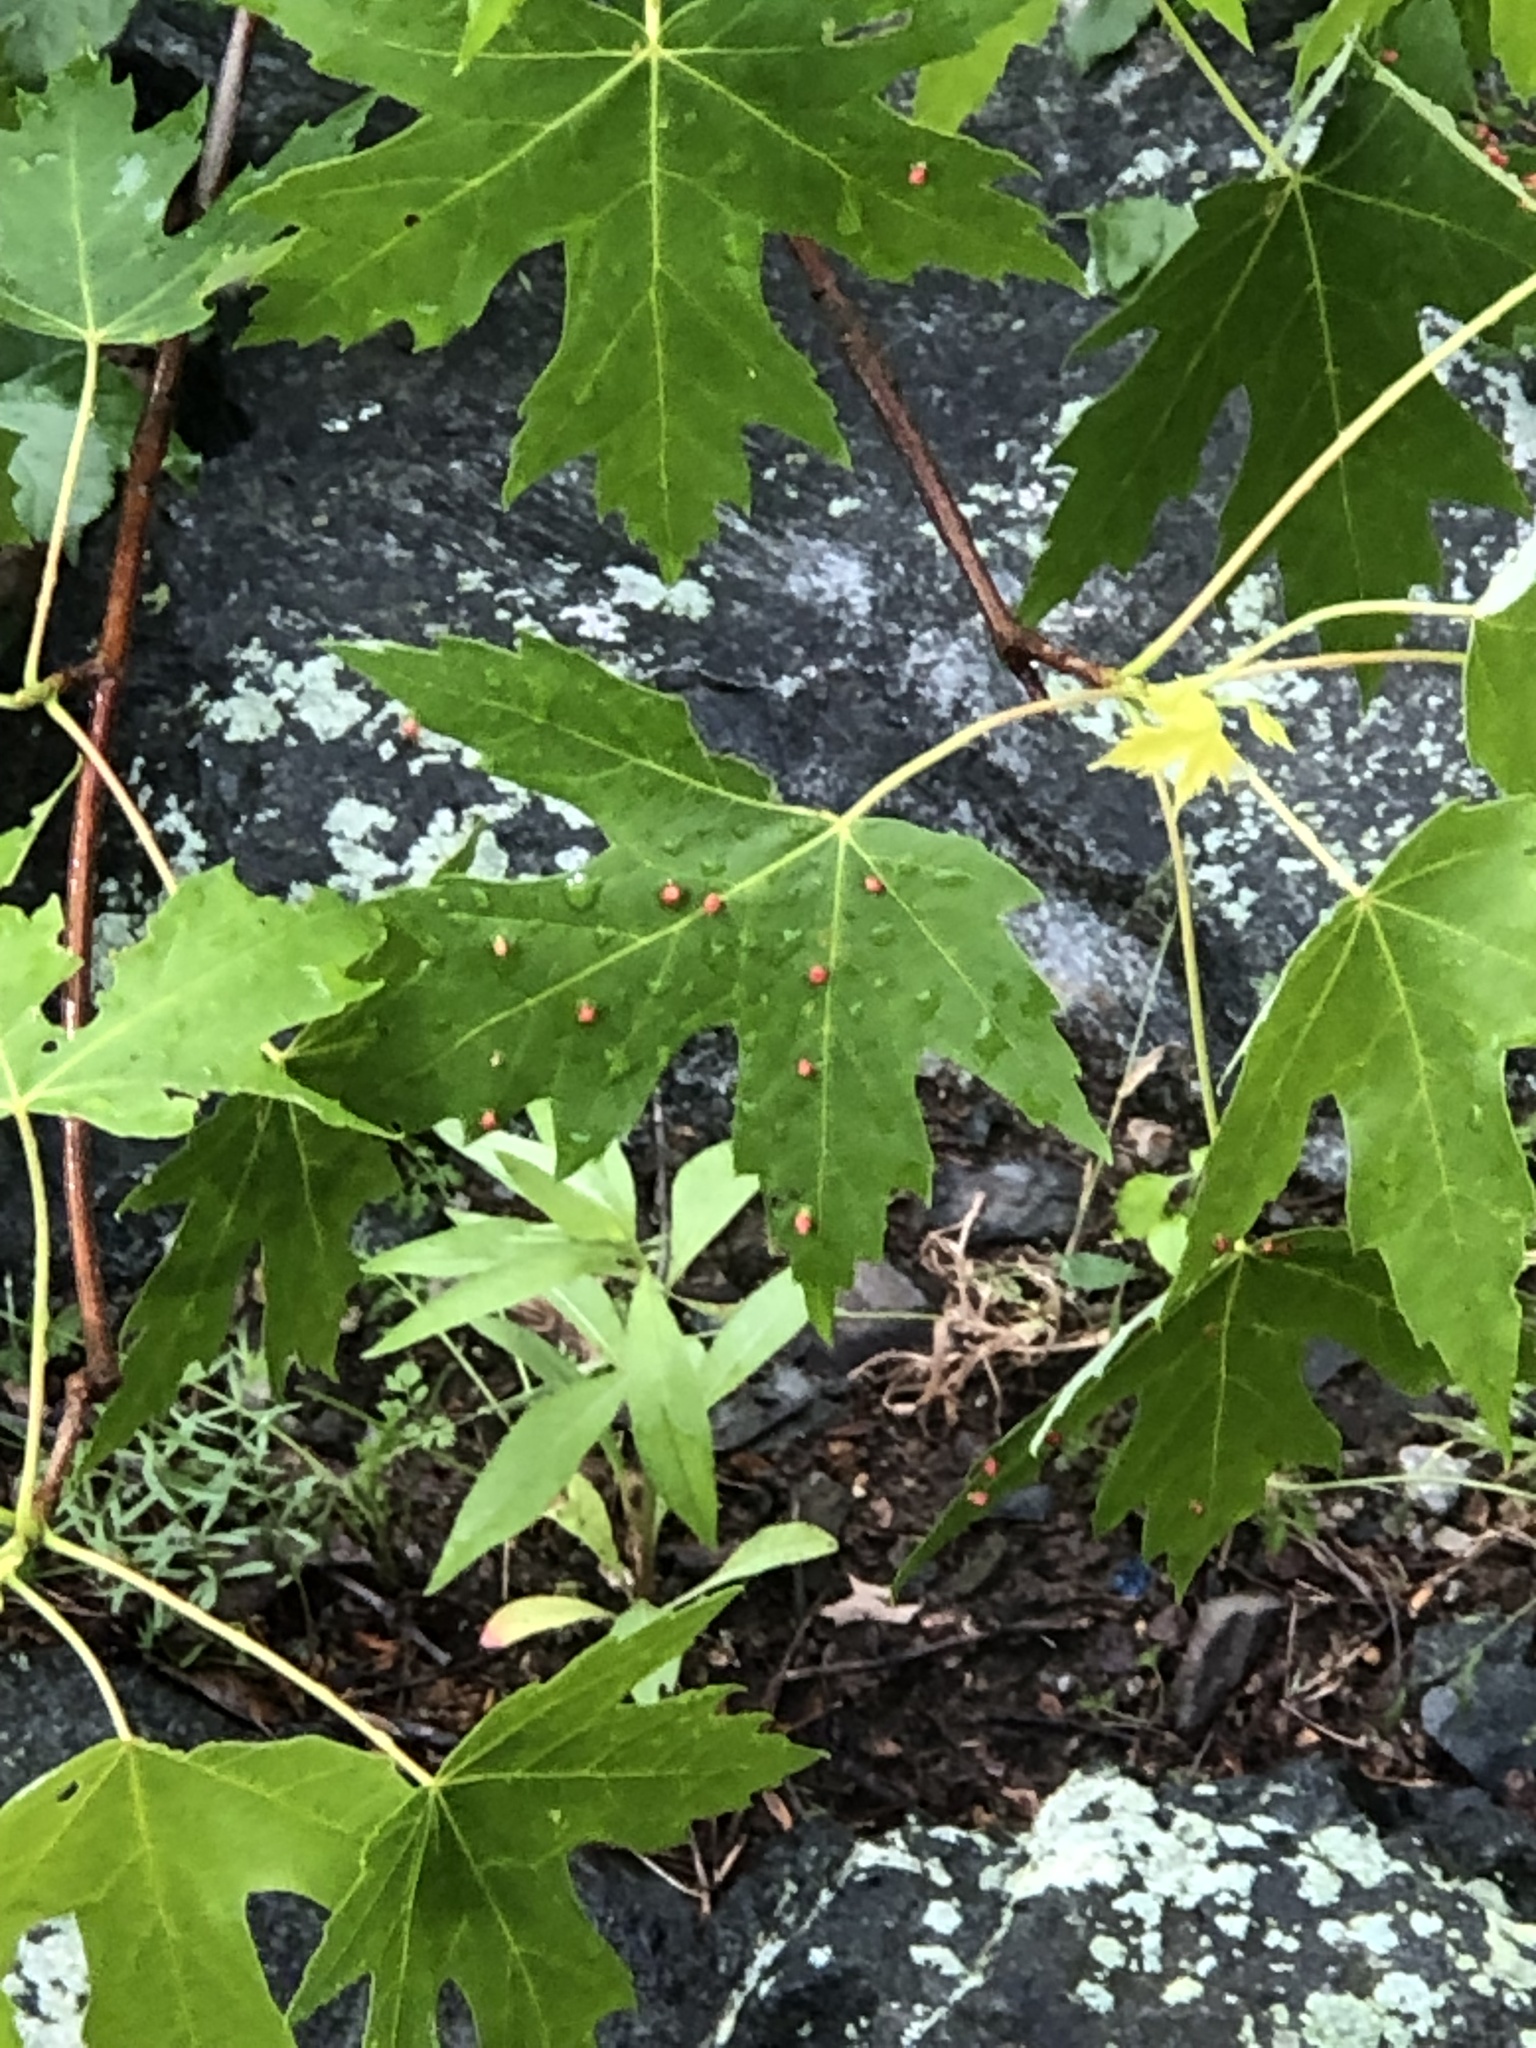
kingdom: Animalia
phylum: Arthropoda
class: Arachnida
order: Trombidiformes
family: Eriophyidae
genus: Vasates
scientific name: Vasates quadripedes
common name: Maple bladder gall mite
